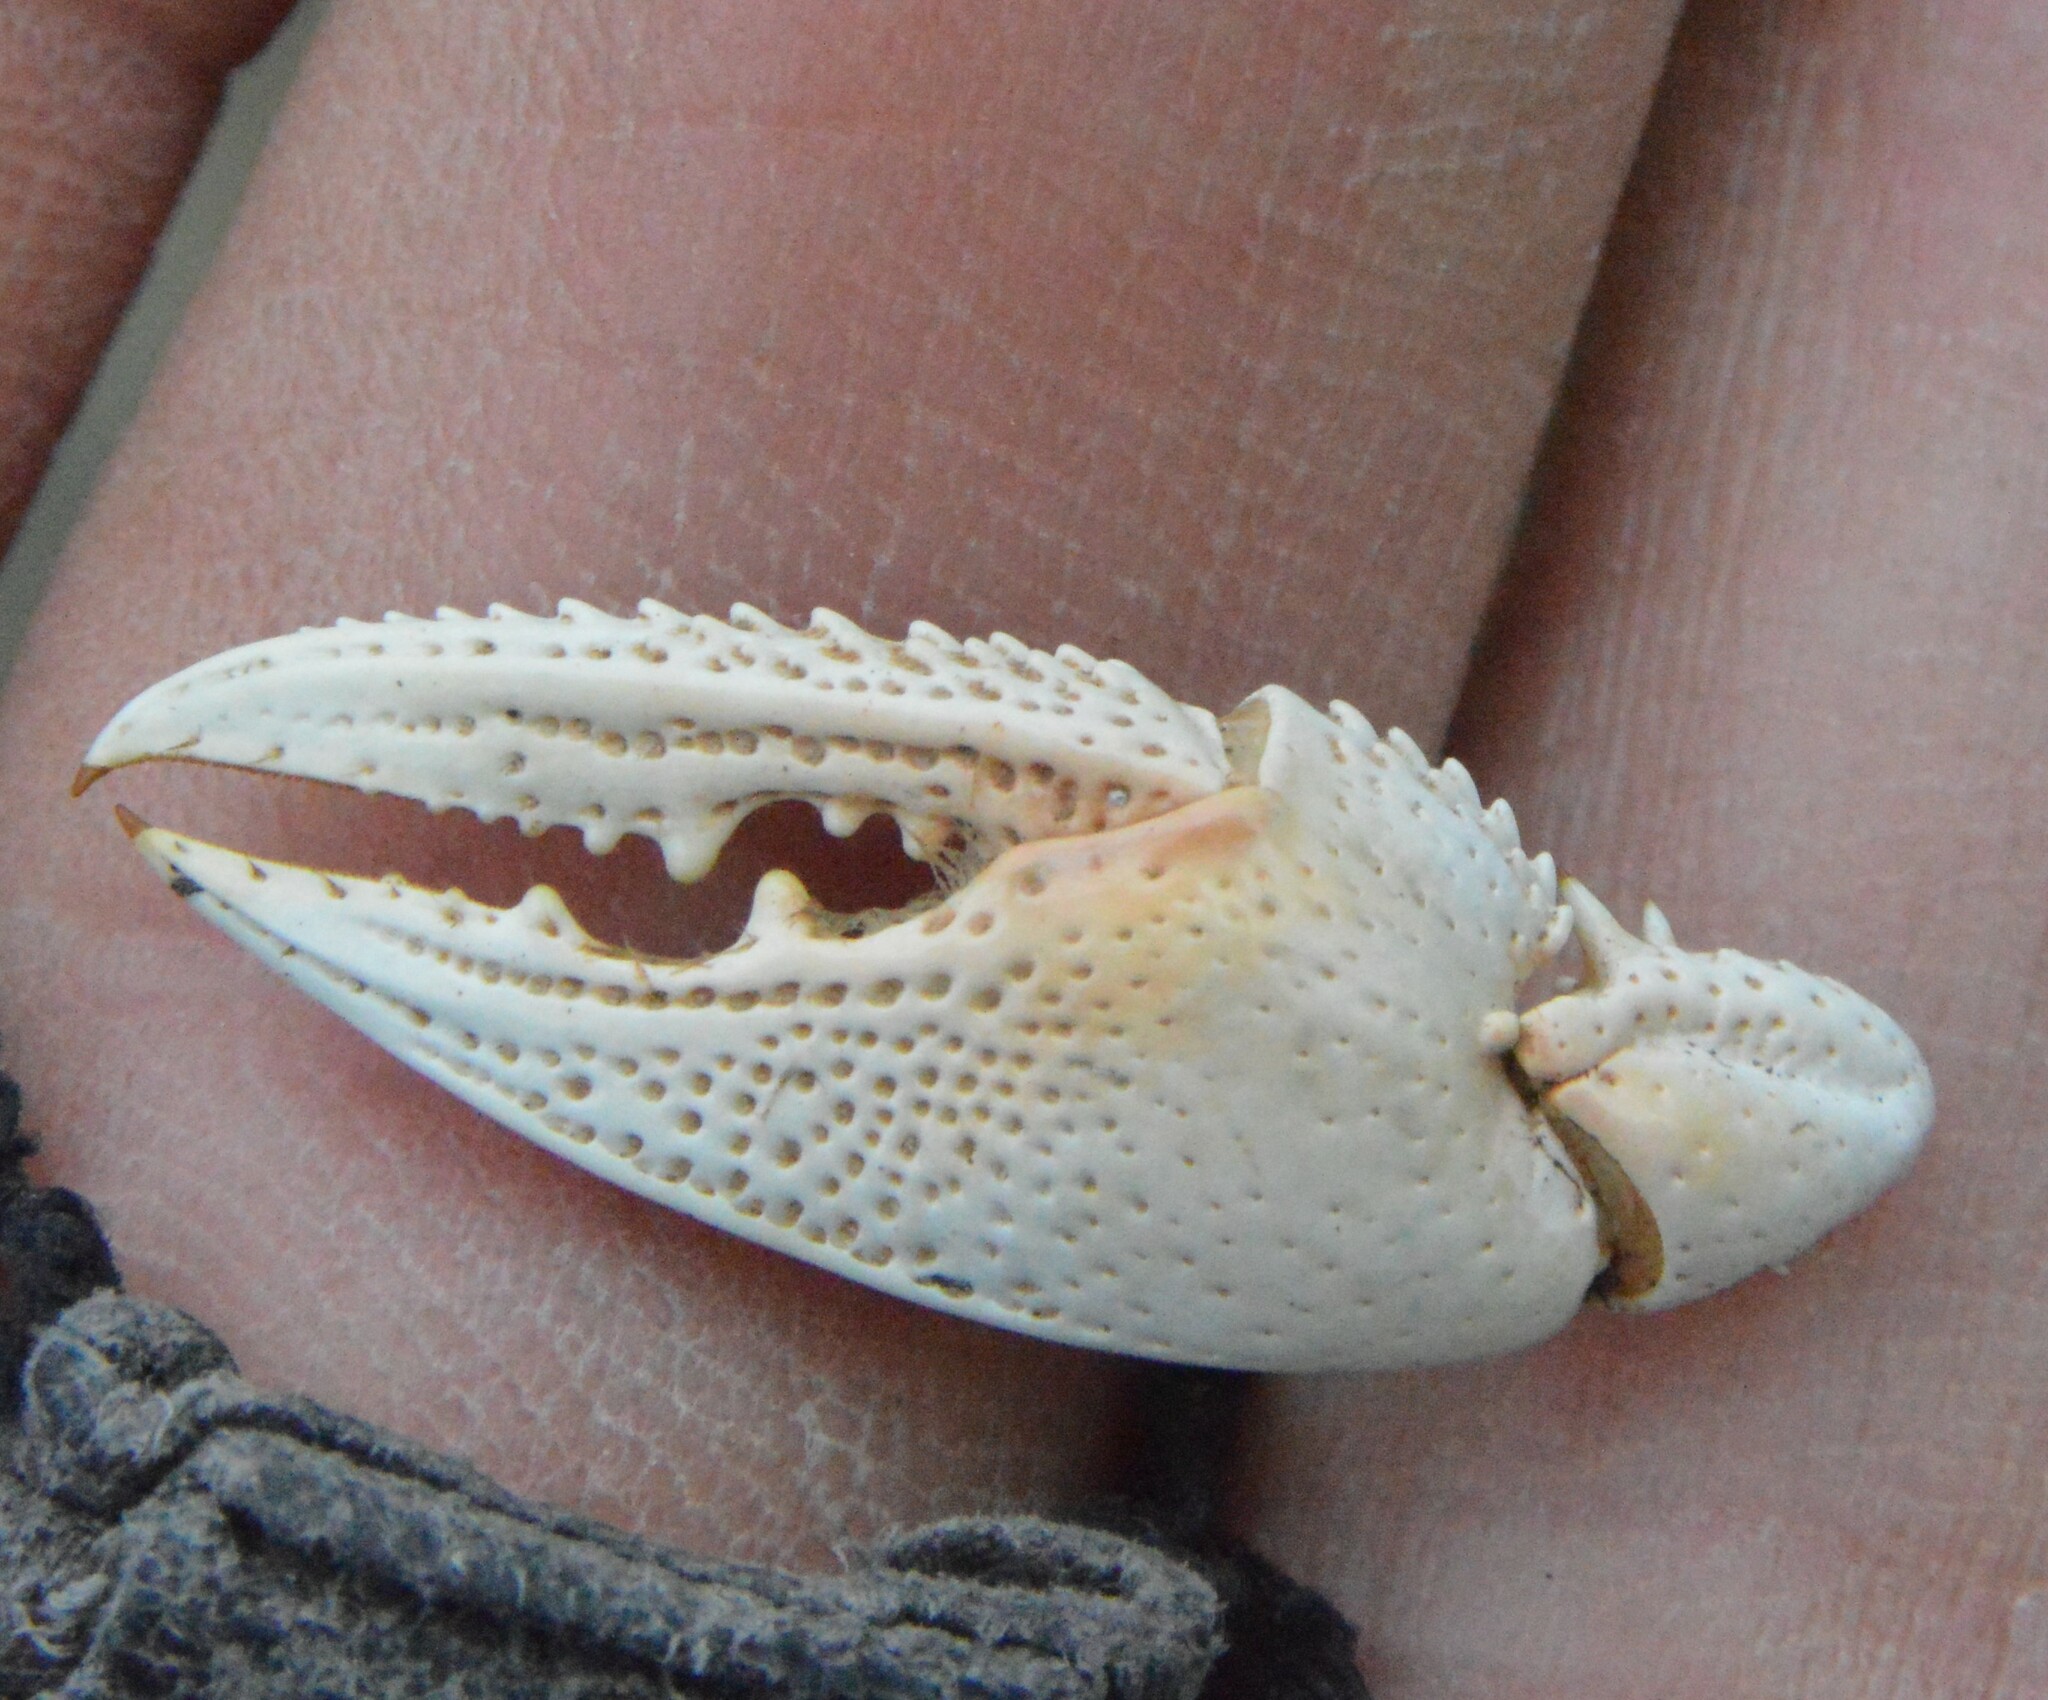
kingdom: Animalia
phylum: Arthropoda
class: Malacostraca
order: Decapoda
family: Cambaridae
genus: Creaserinus
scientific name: Creaserinus
